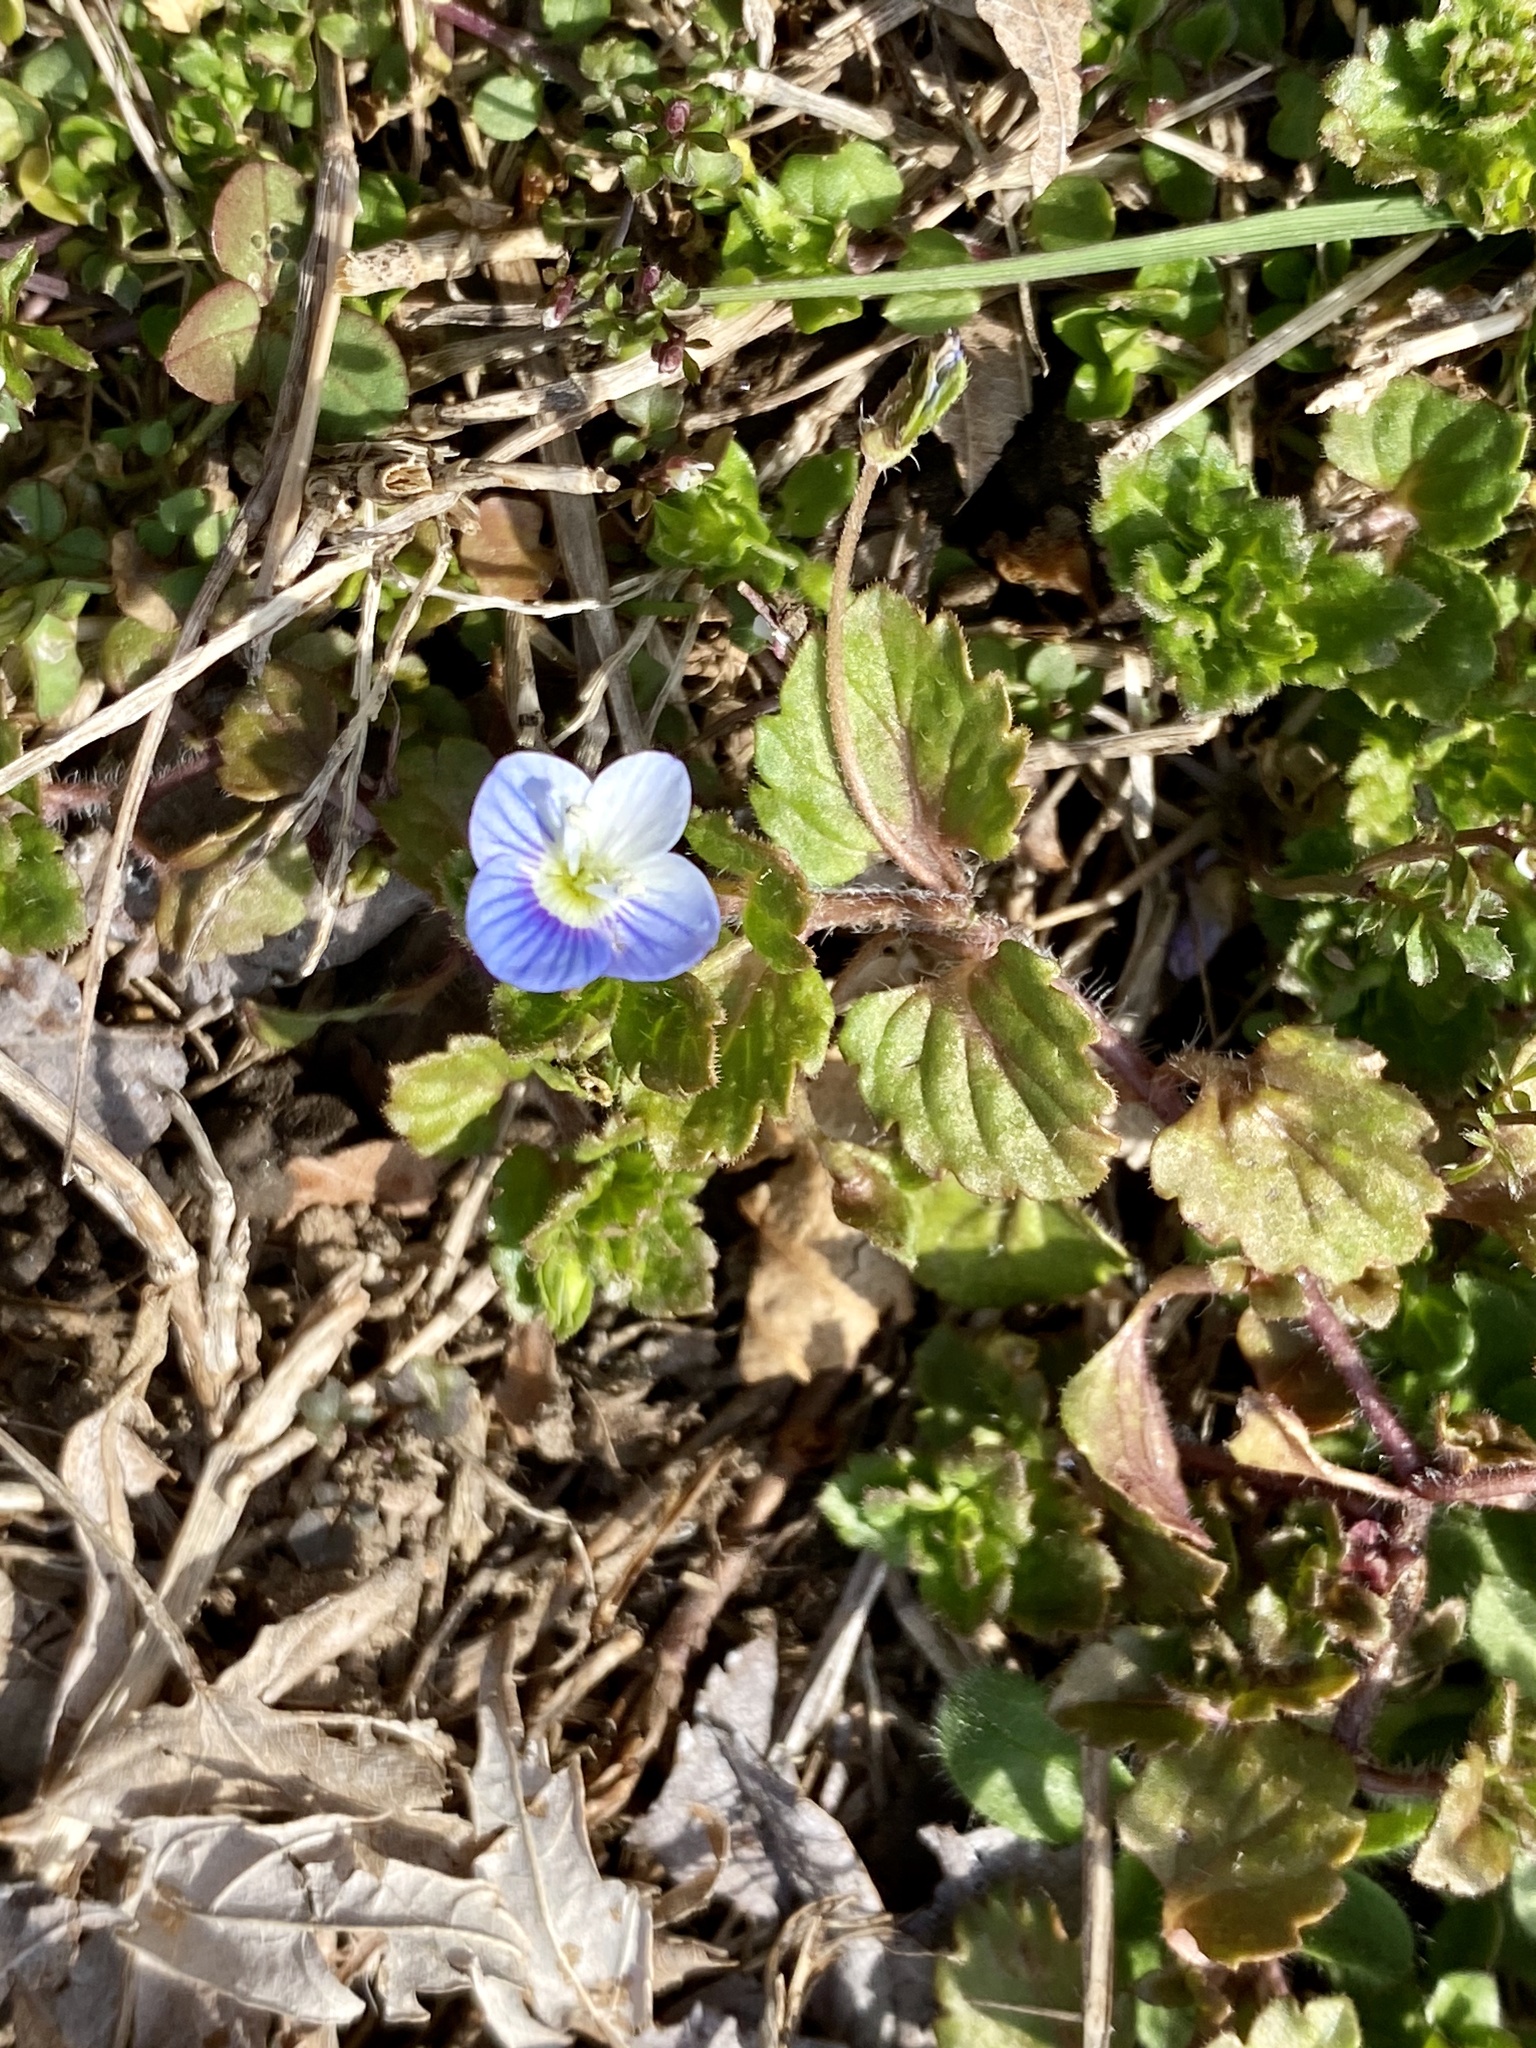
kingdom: Plantae
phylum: Tracheophyta
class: Magnoliopsida
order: Lamiales
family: Plantaginaceae
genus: Veronica
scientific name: Veronica persica
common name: Common field-speedwell
